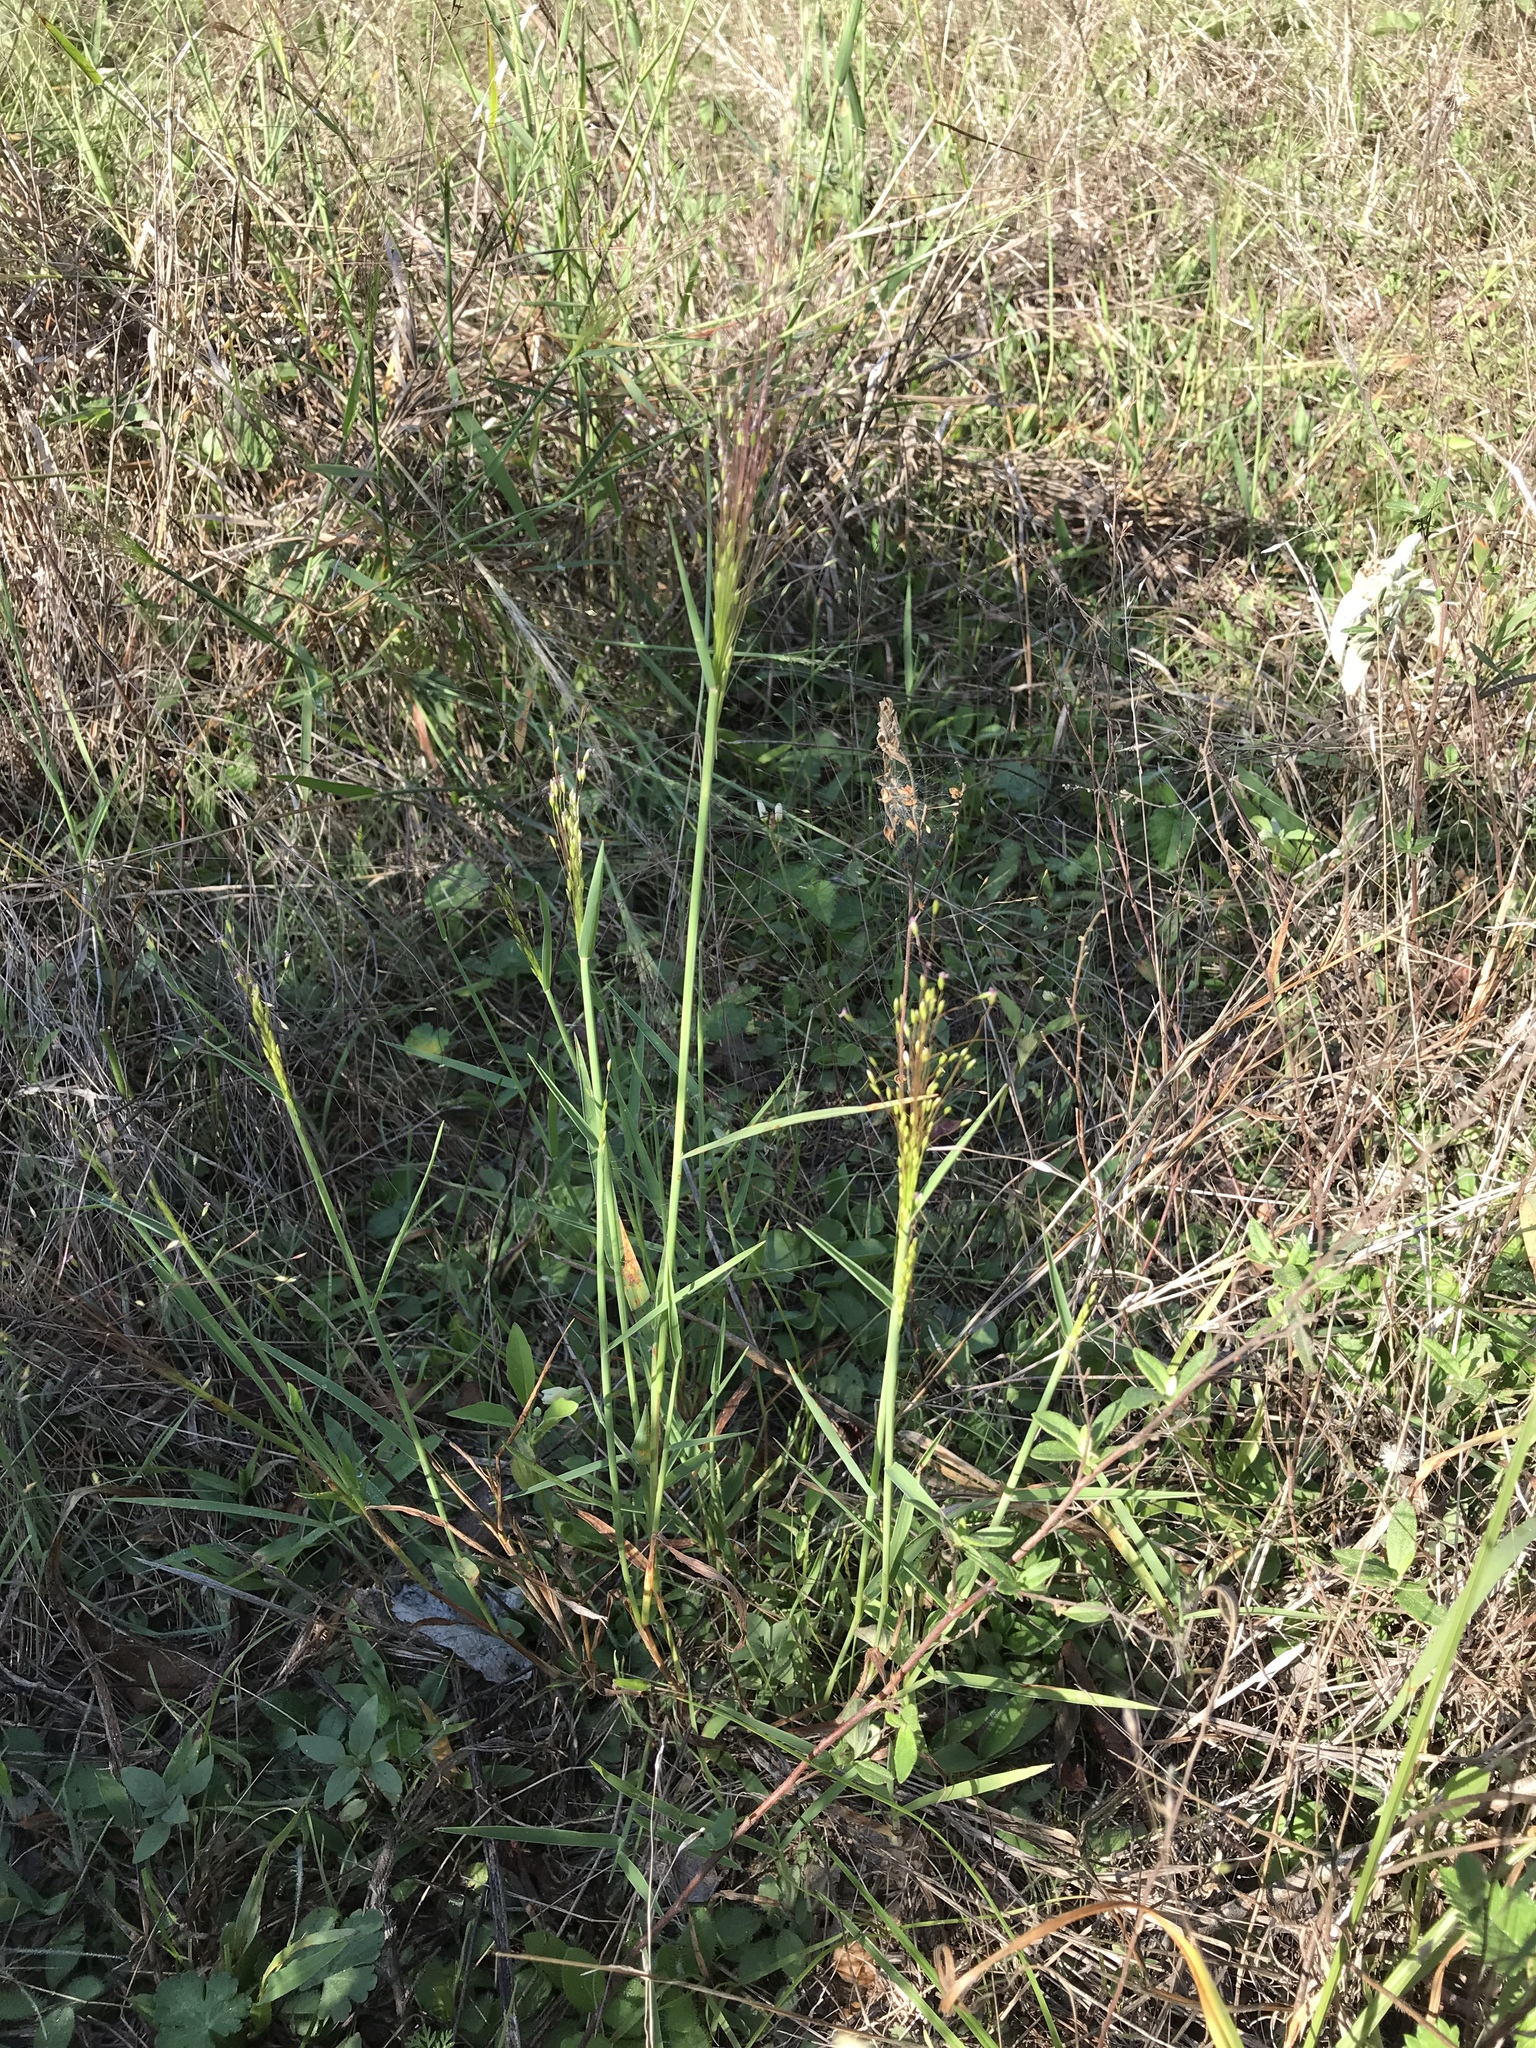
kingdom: Plantae
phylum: Tracheophyta
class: Liliopsida
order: Poales
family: Poaceae
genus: Digitaria
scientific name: Digitaria cognata
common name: Fall witchgrass
